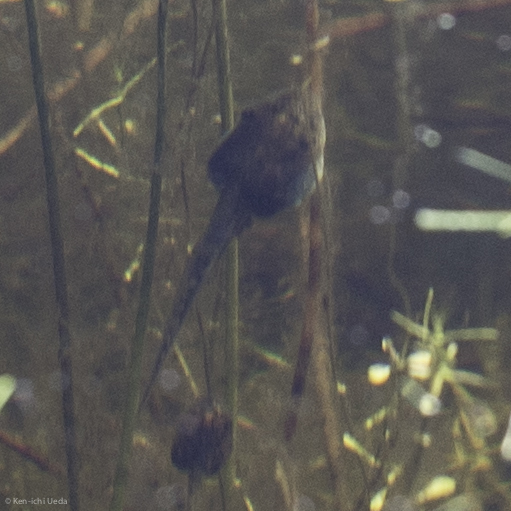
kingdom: Animalia
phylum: Chordata
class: Amphibia
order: Anura
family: Hylidae
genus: Pseudacris
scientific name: Pseudacris regilla
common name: Pacific chorus frog
